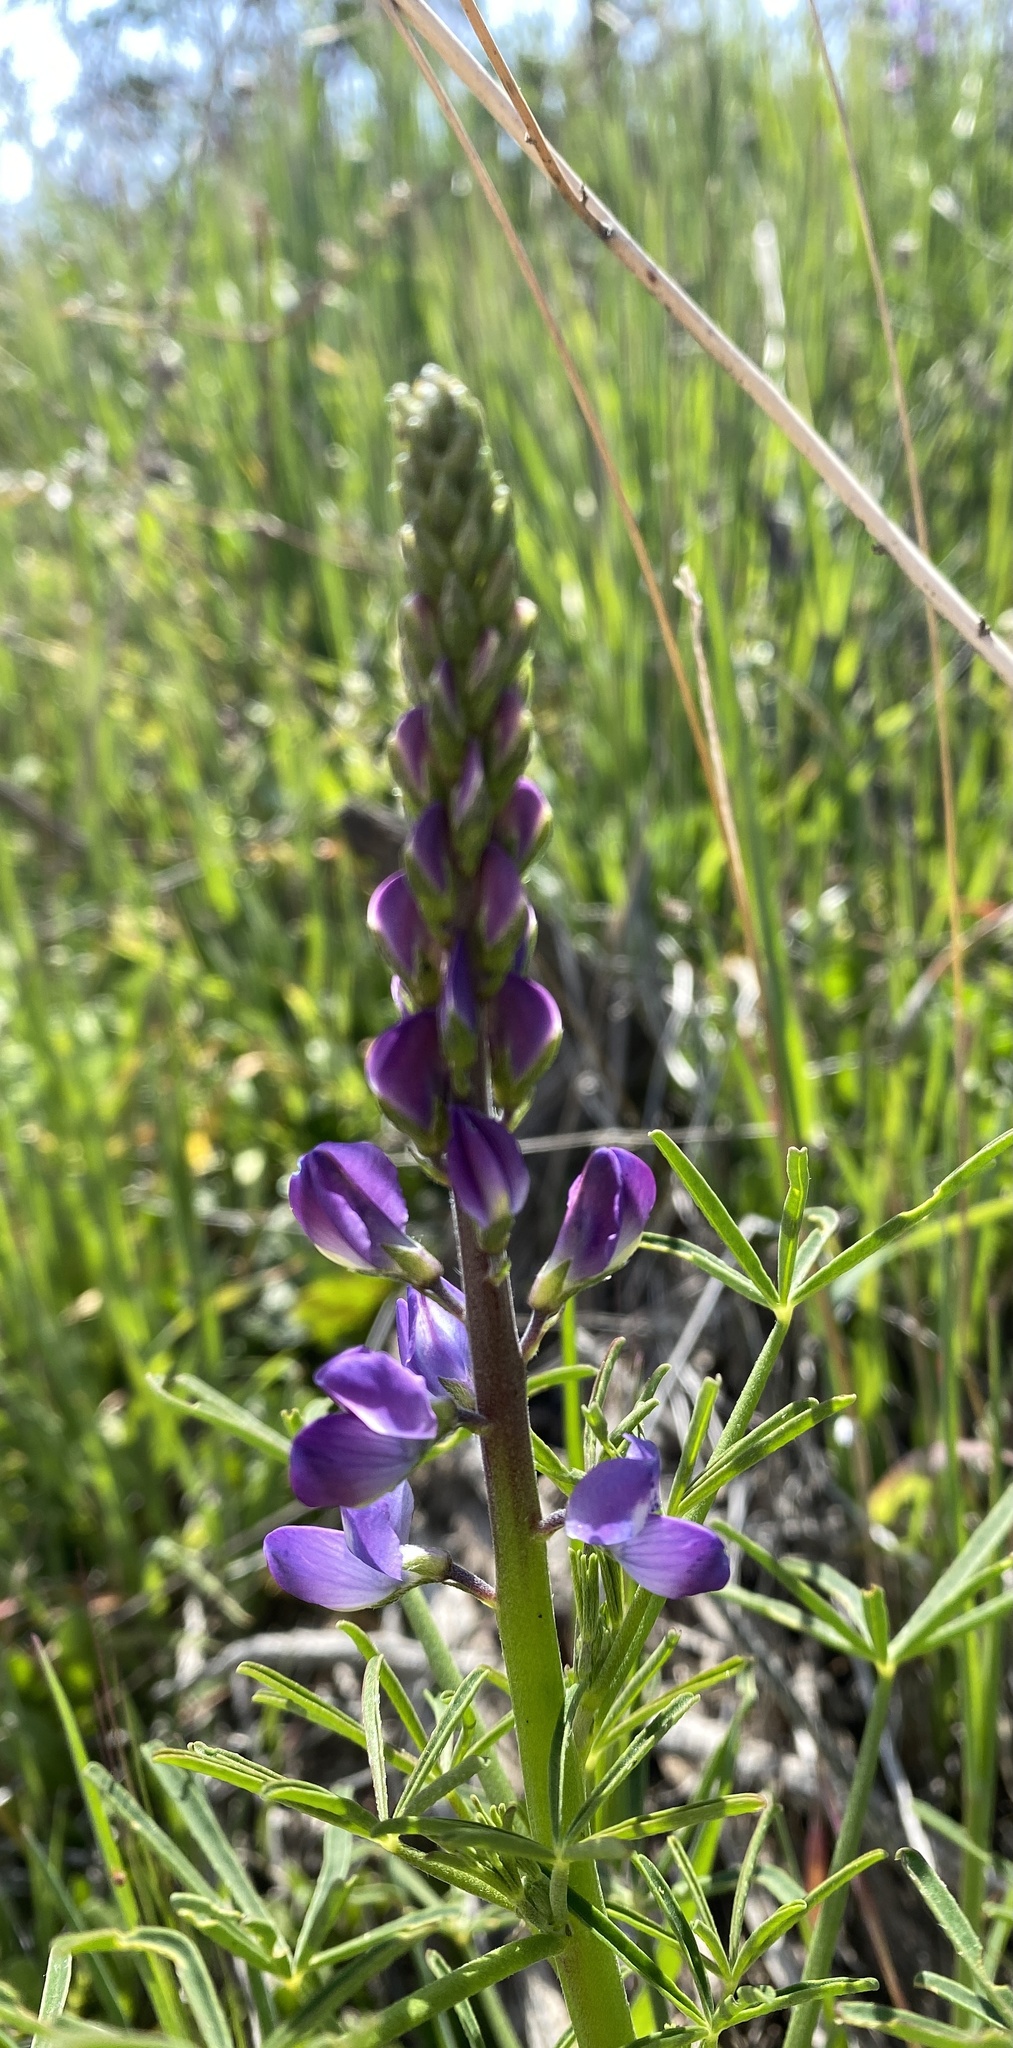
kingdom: Plantae
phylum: Tracheophyta
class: Magnoliopsida
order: Fabales
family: Fabaceae
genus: Lupinus
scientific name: Lupinus truncatus
